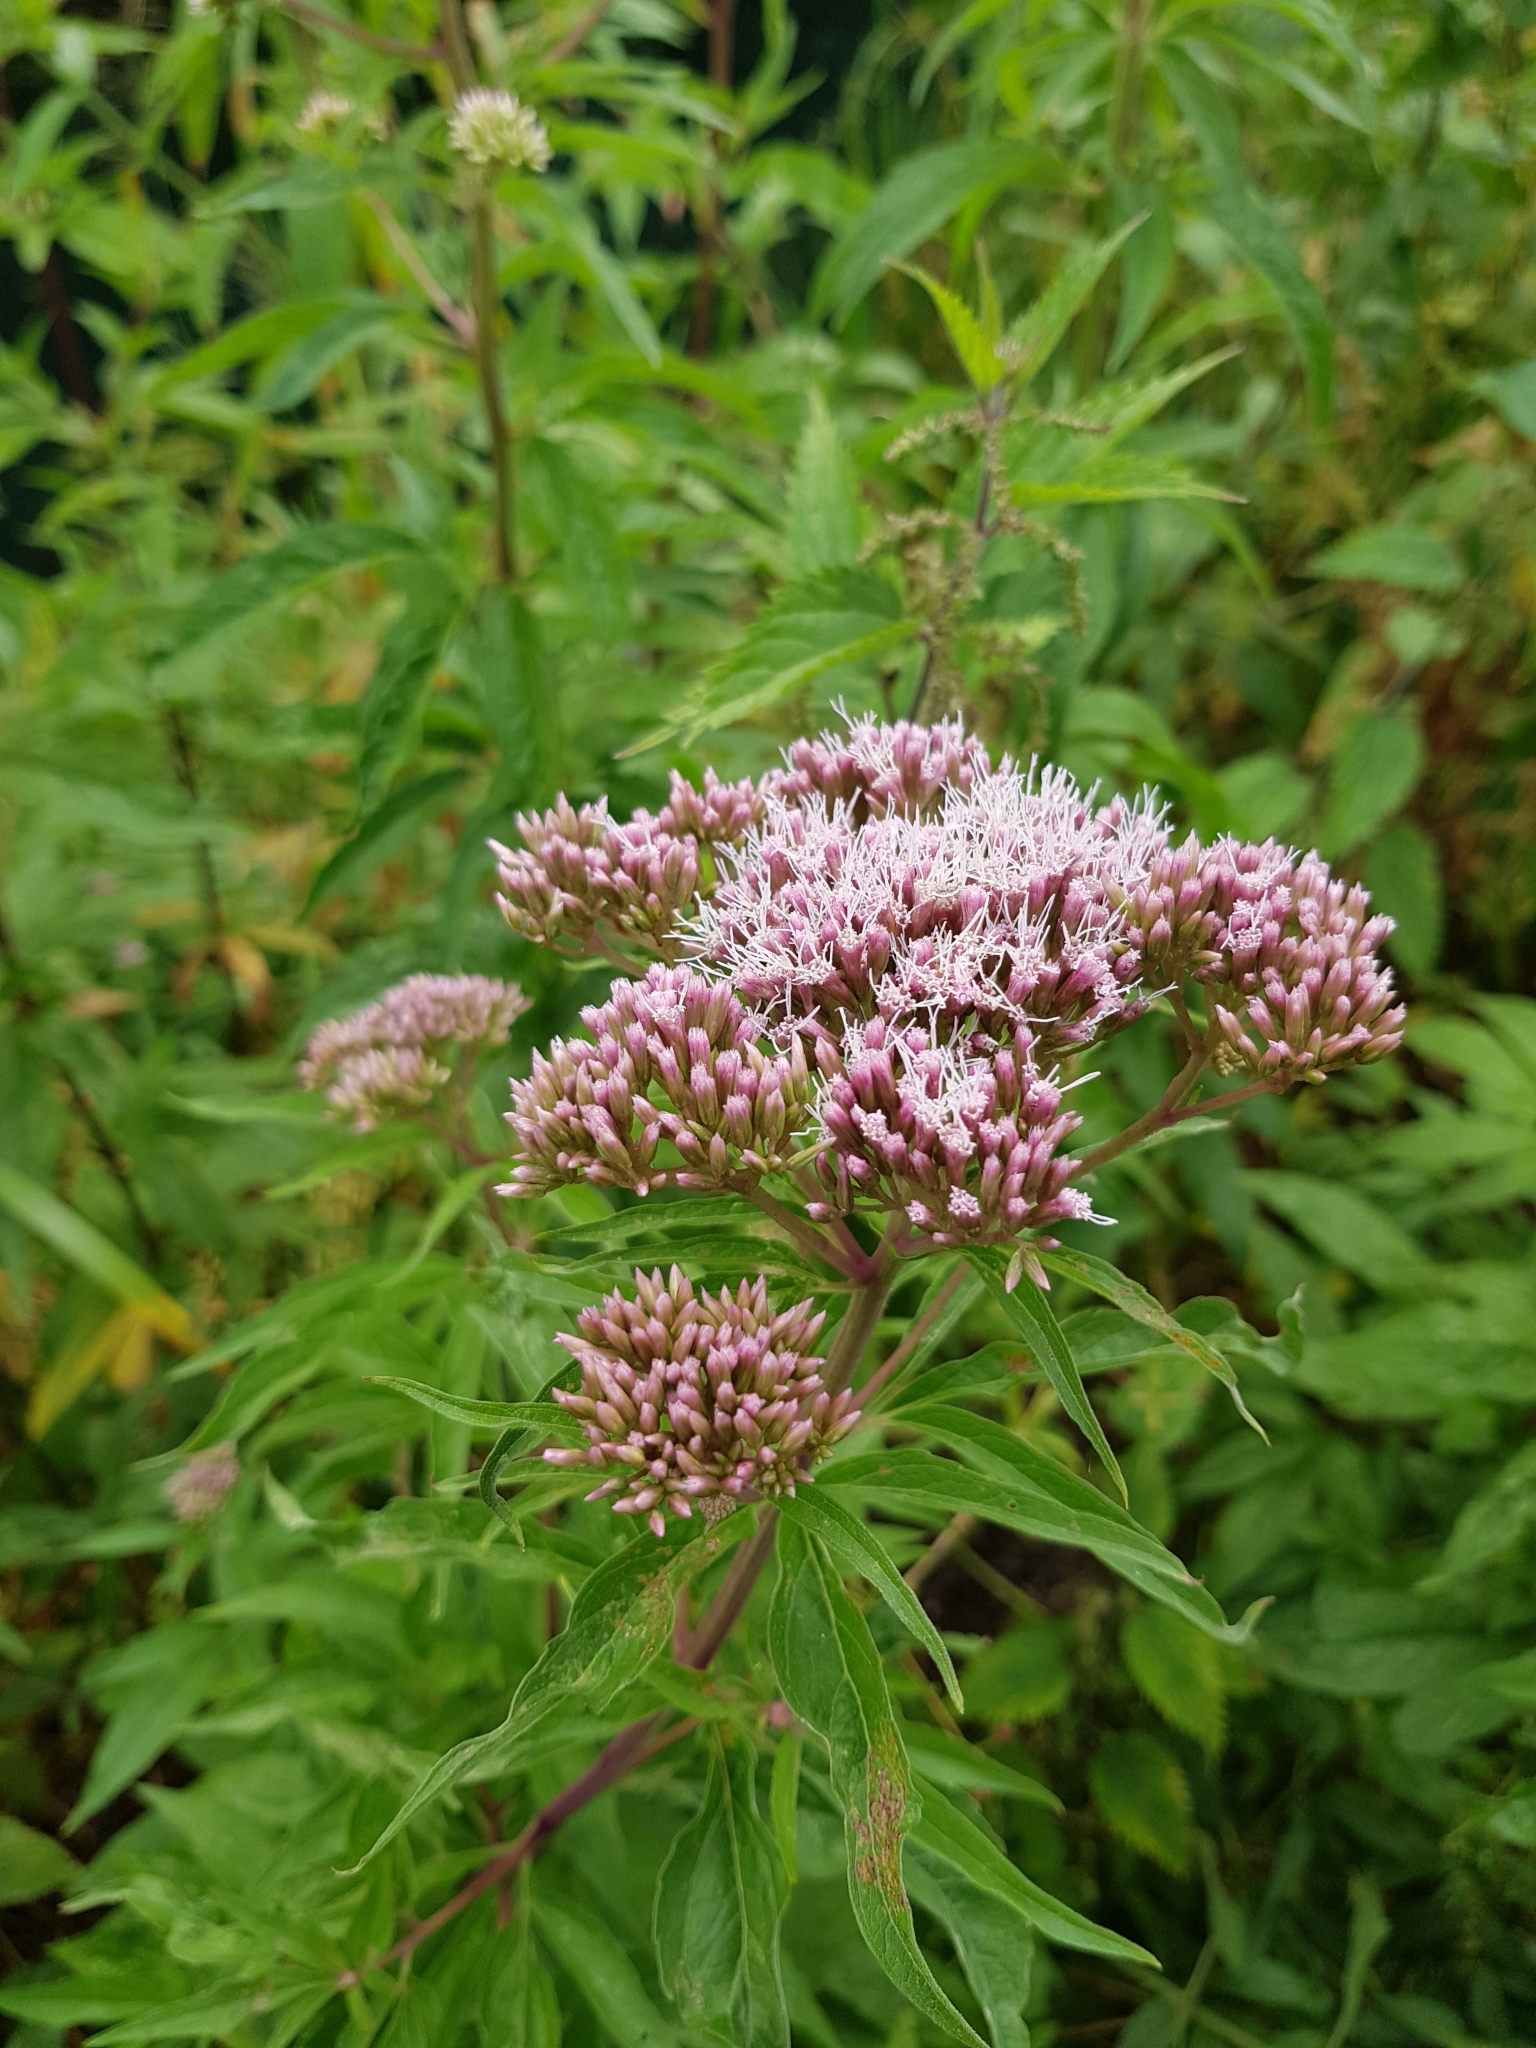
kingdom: Plantae
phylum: Tracheophyta
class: Magnoliopsida
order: Asterales
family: Asteraceae
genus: Eupatorium
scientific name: Eupatorium cannabinum
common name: Hemp-agrimony
